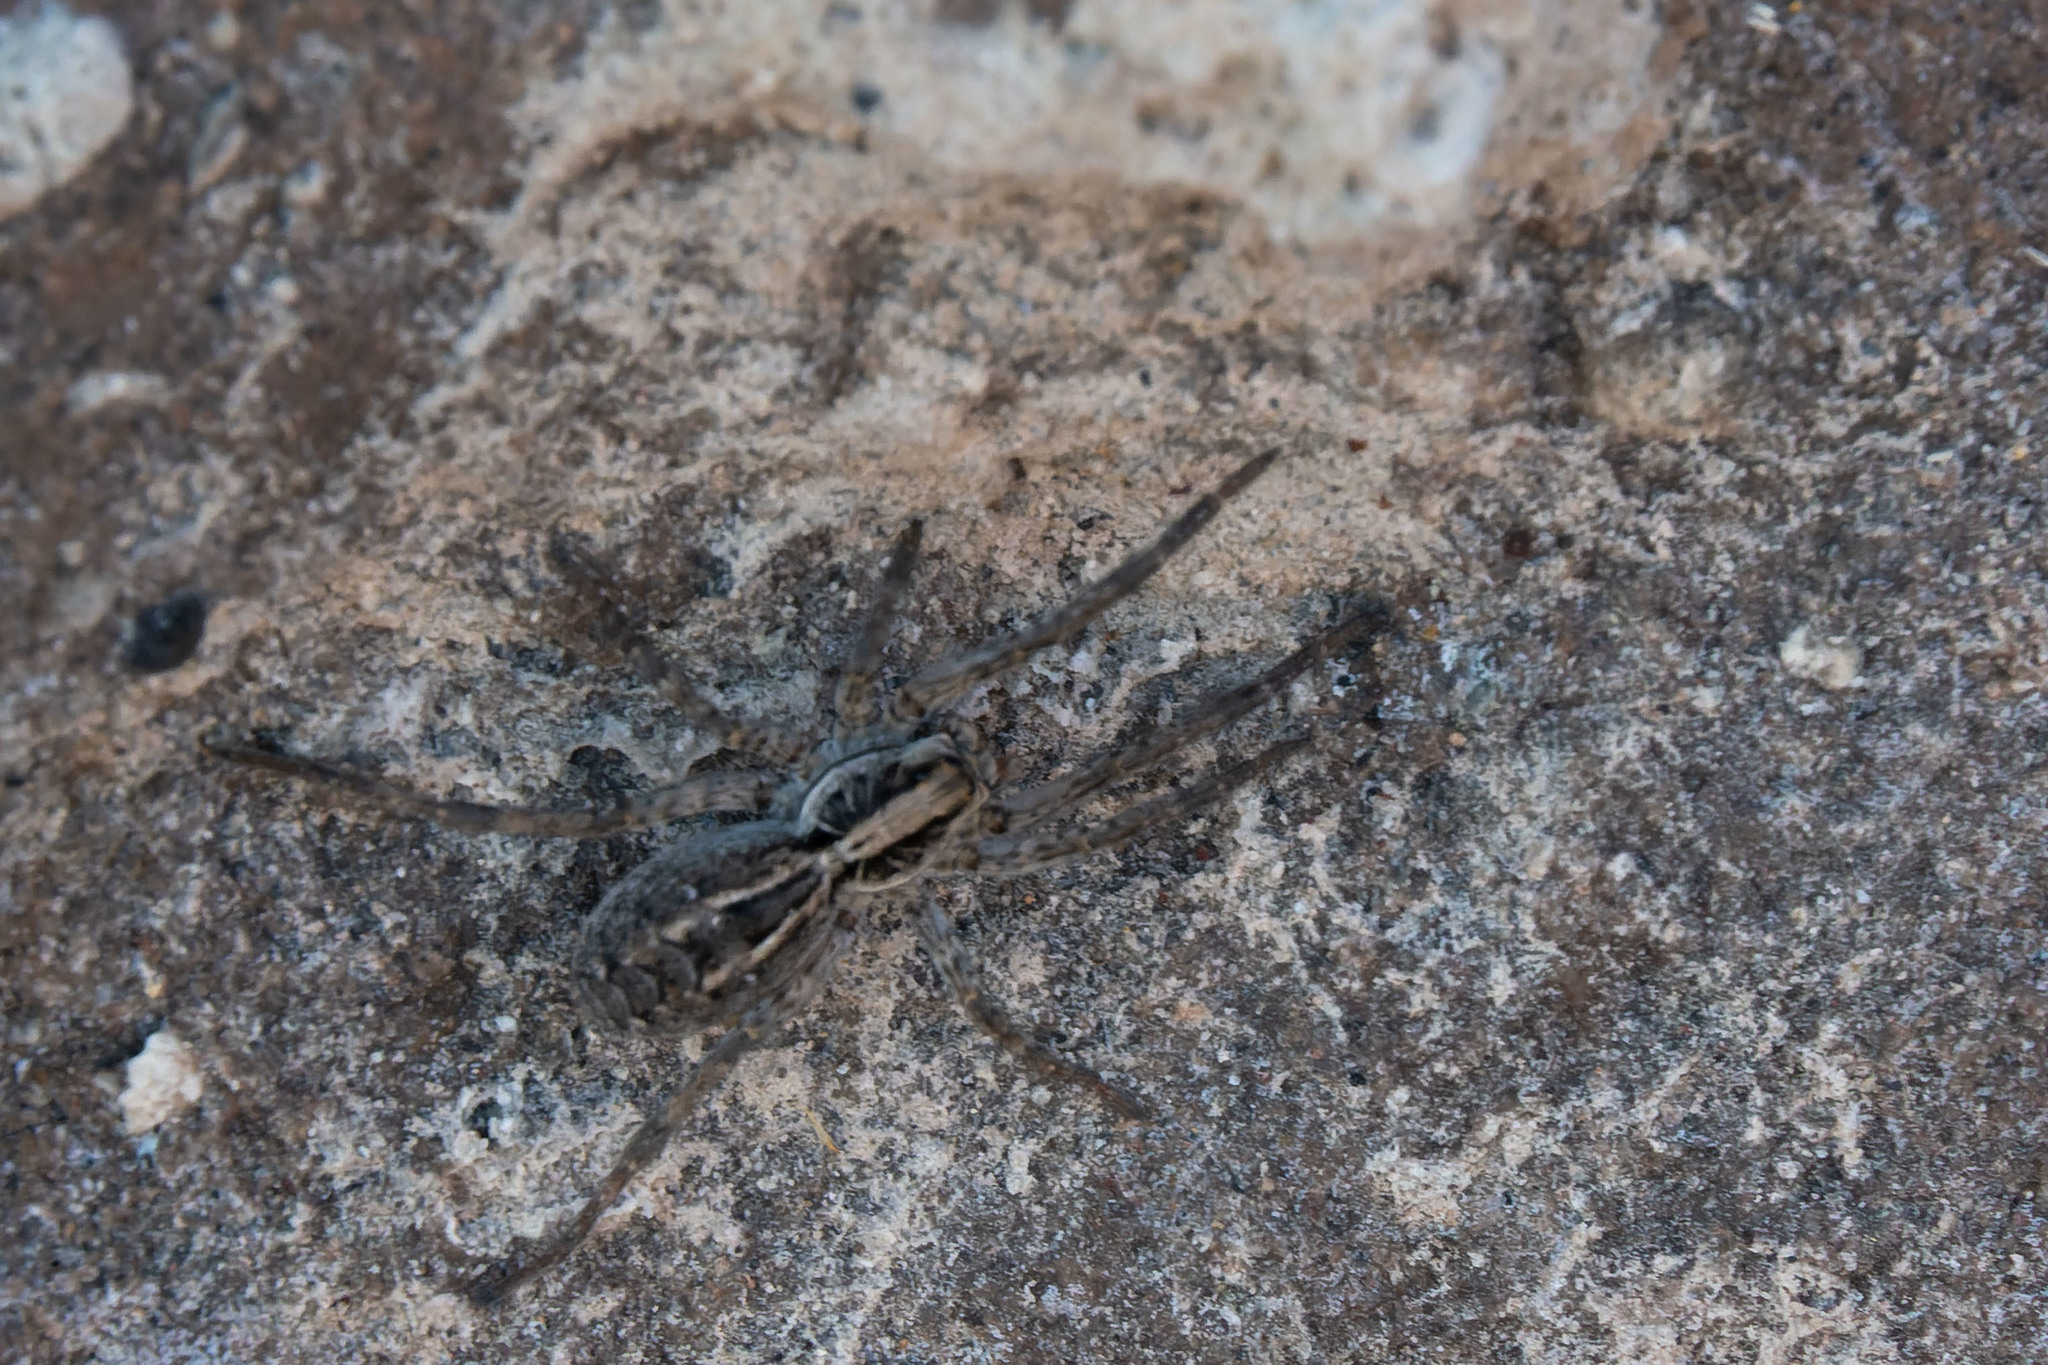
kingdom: Animalia
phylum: Arthropoda
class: Arachnida
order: Araneae
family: Lycosidae
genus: Schizocosa
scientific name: Schizocosa malitiosa
